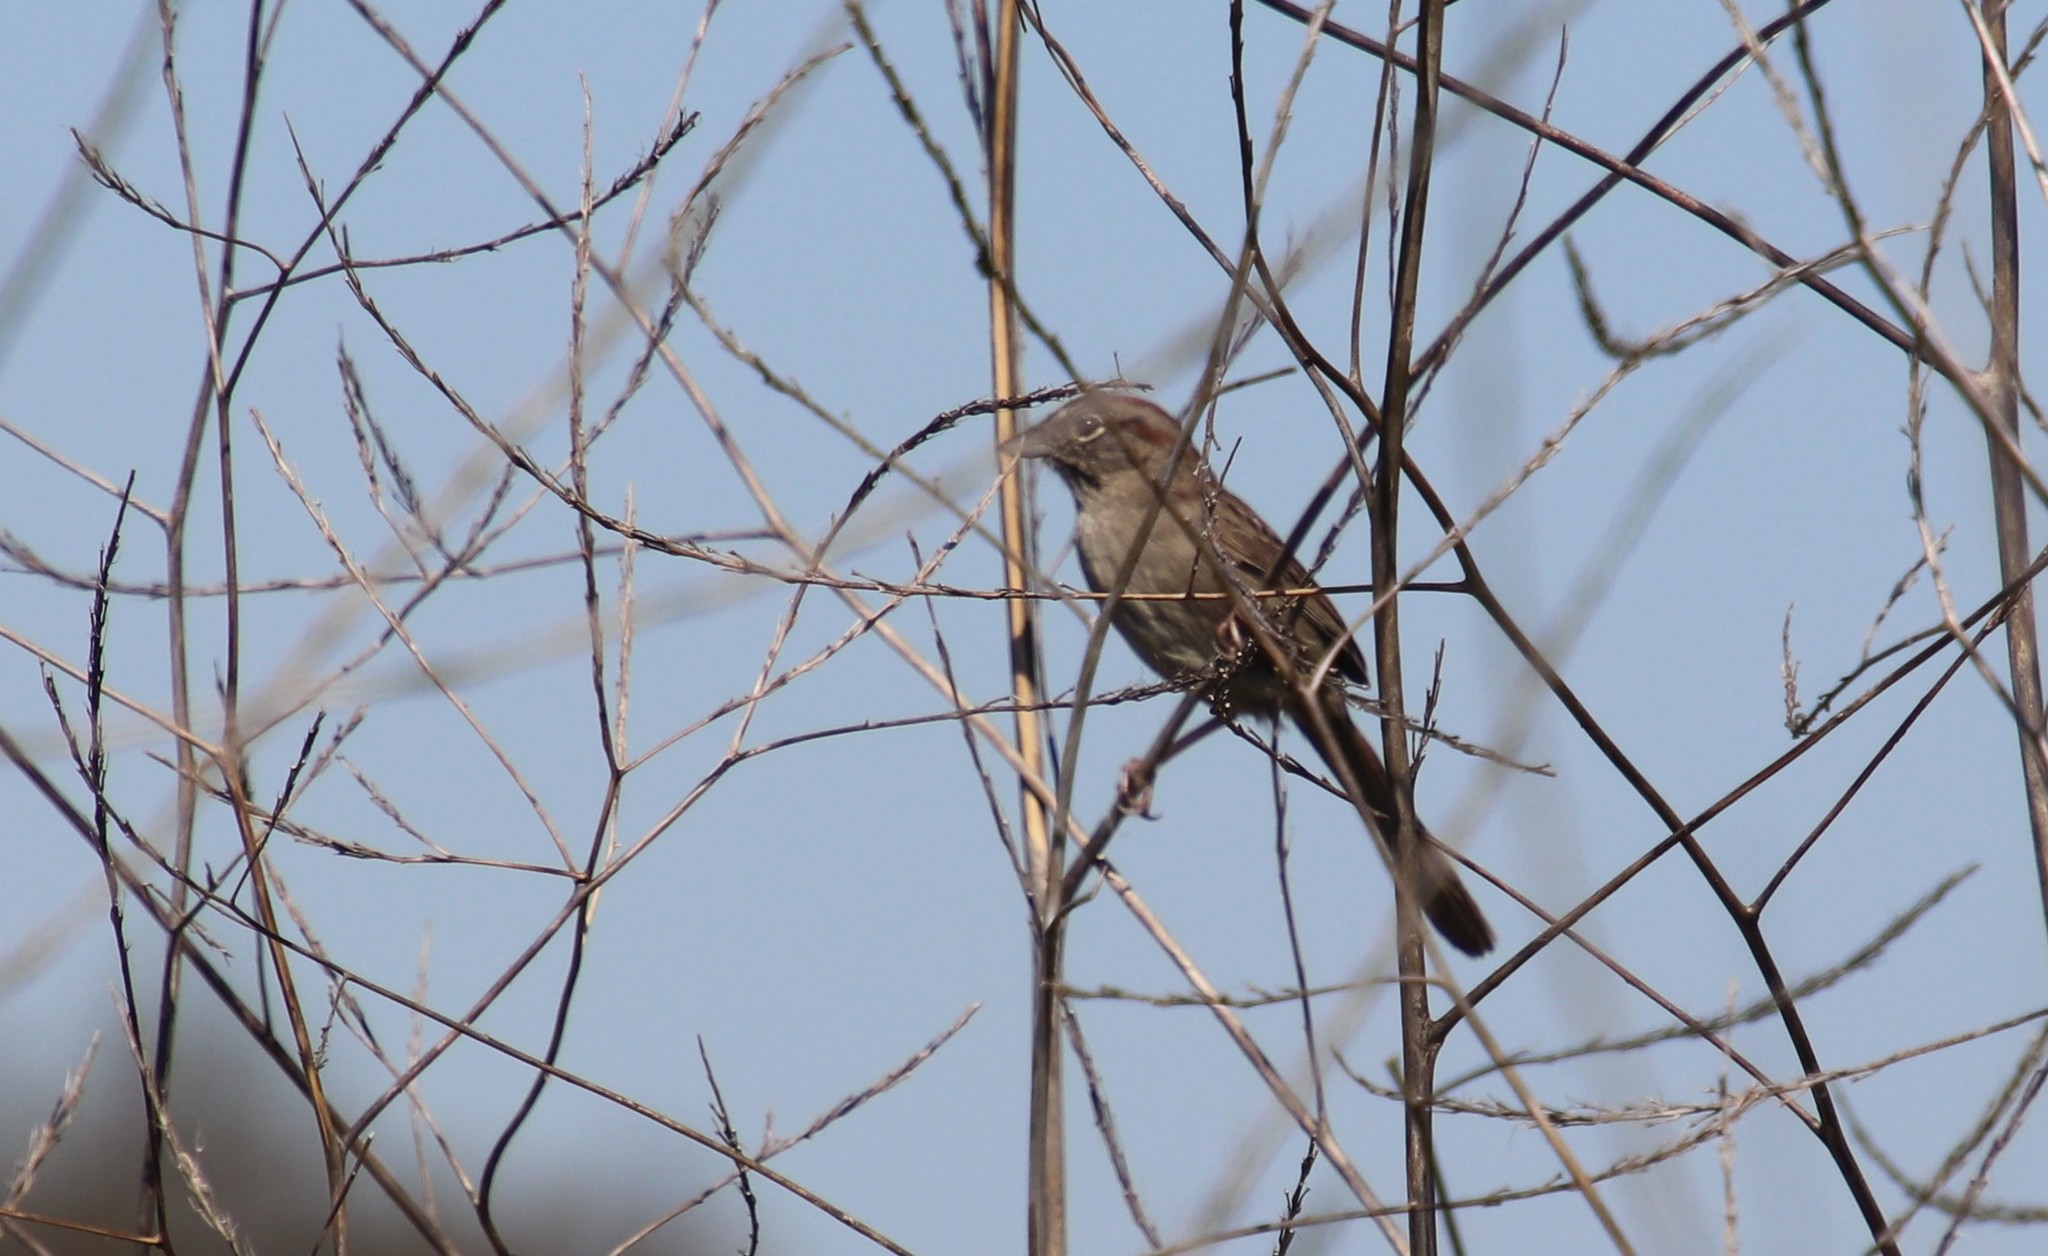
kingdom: Animalia
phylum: Chordata
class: Aves
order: Passeriformes
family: Passerellidae
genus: Aimophila
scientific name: Aimophila ruficeps
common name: Rufous-crowned sparrow
